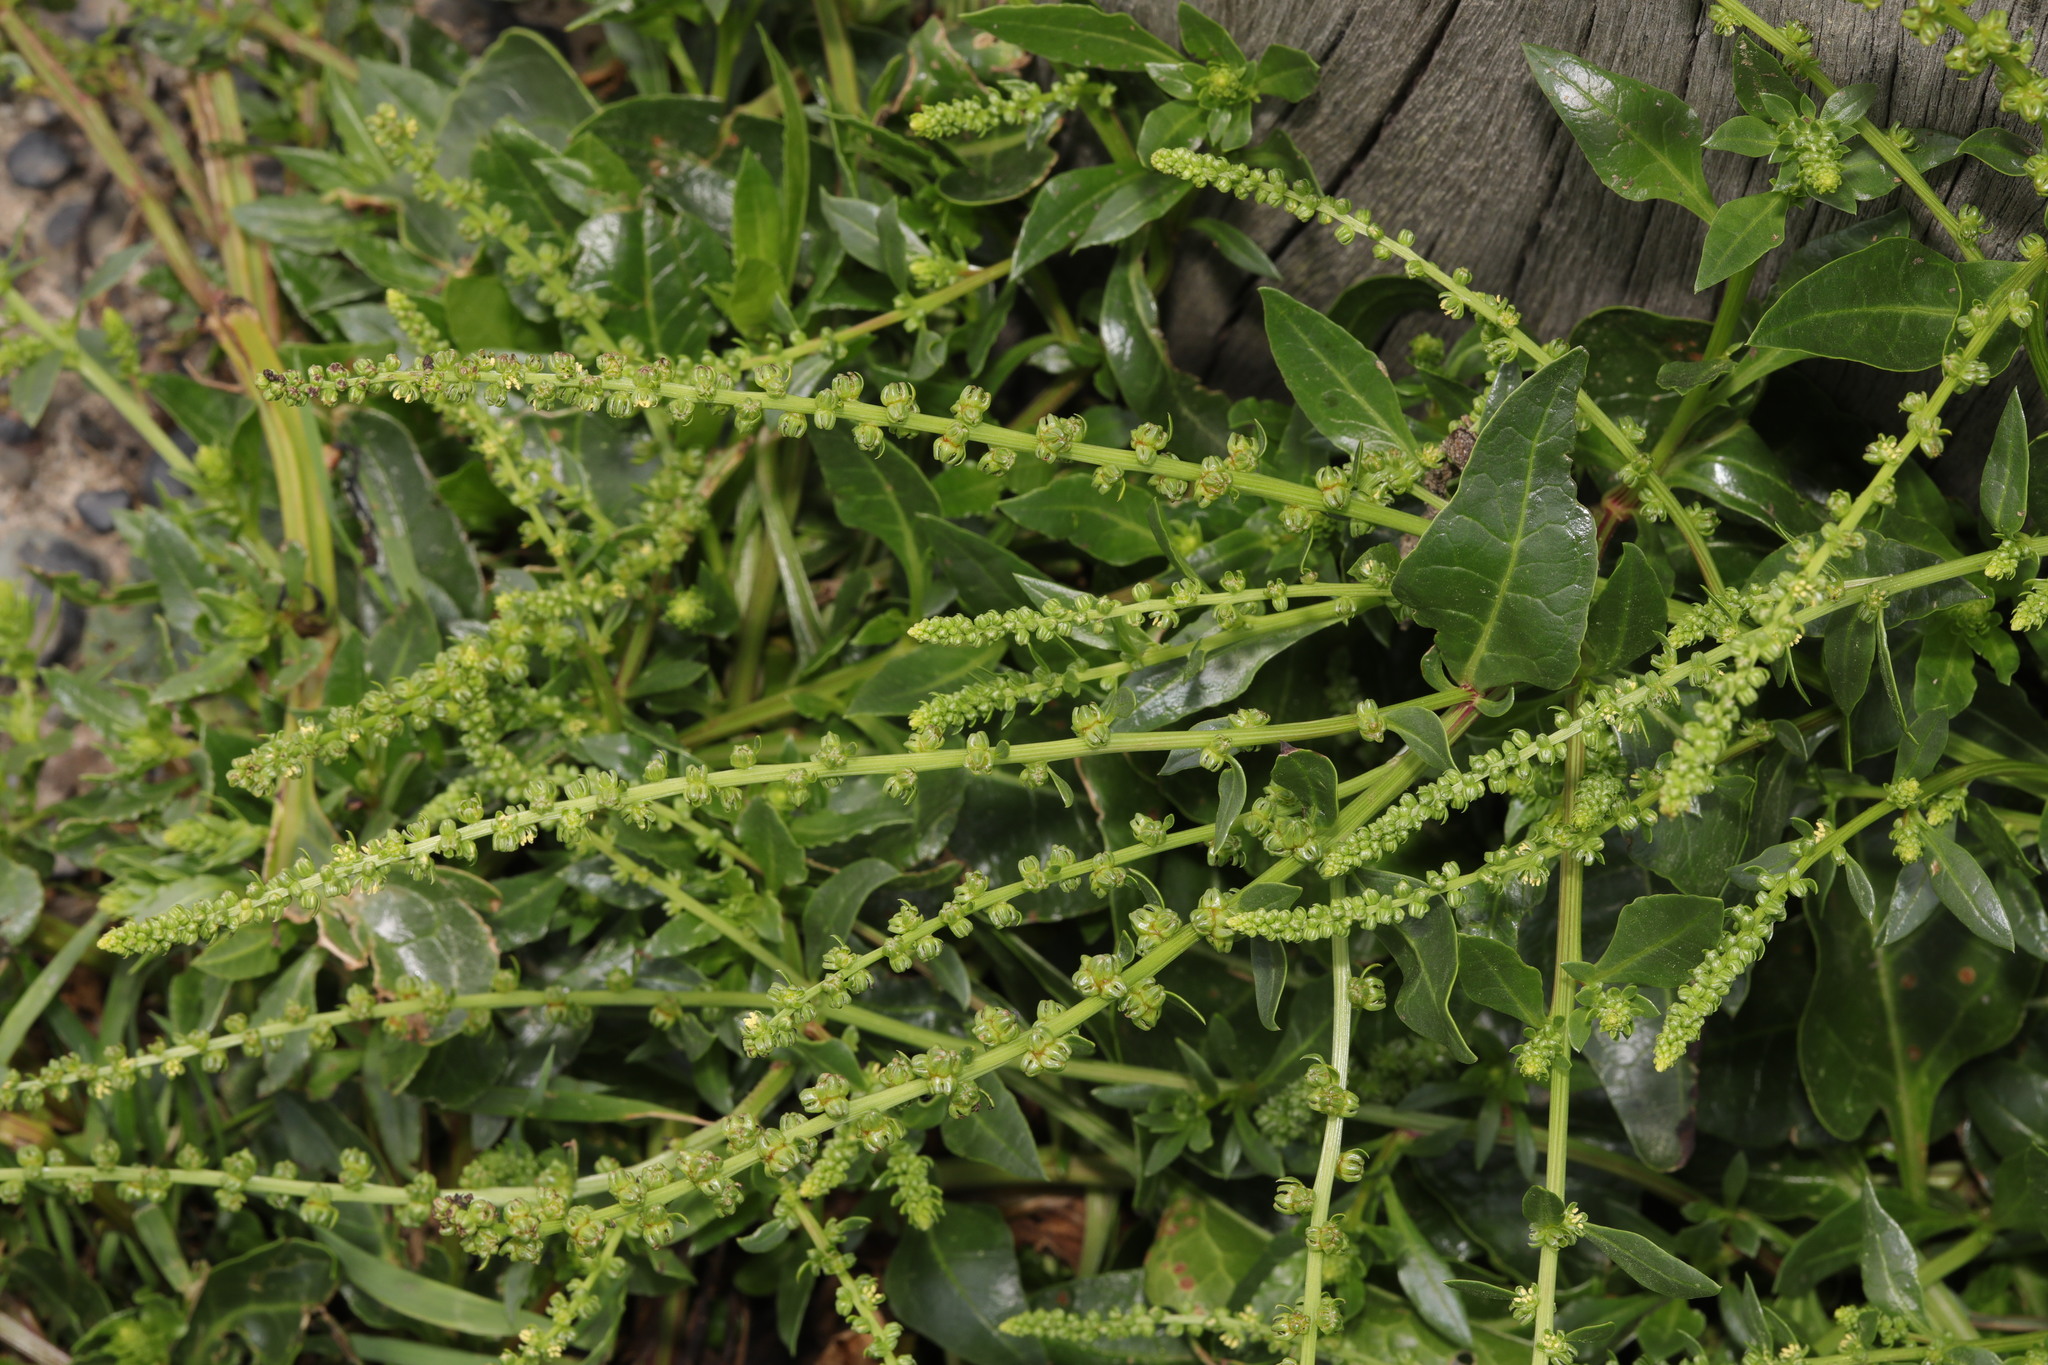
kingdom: Plantae
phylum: Tracheophyta
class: Magnoliopsida
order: Caryophyllales
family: Amaranthaceae
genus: Beta
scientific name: Beta vulgaris
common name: Beet
